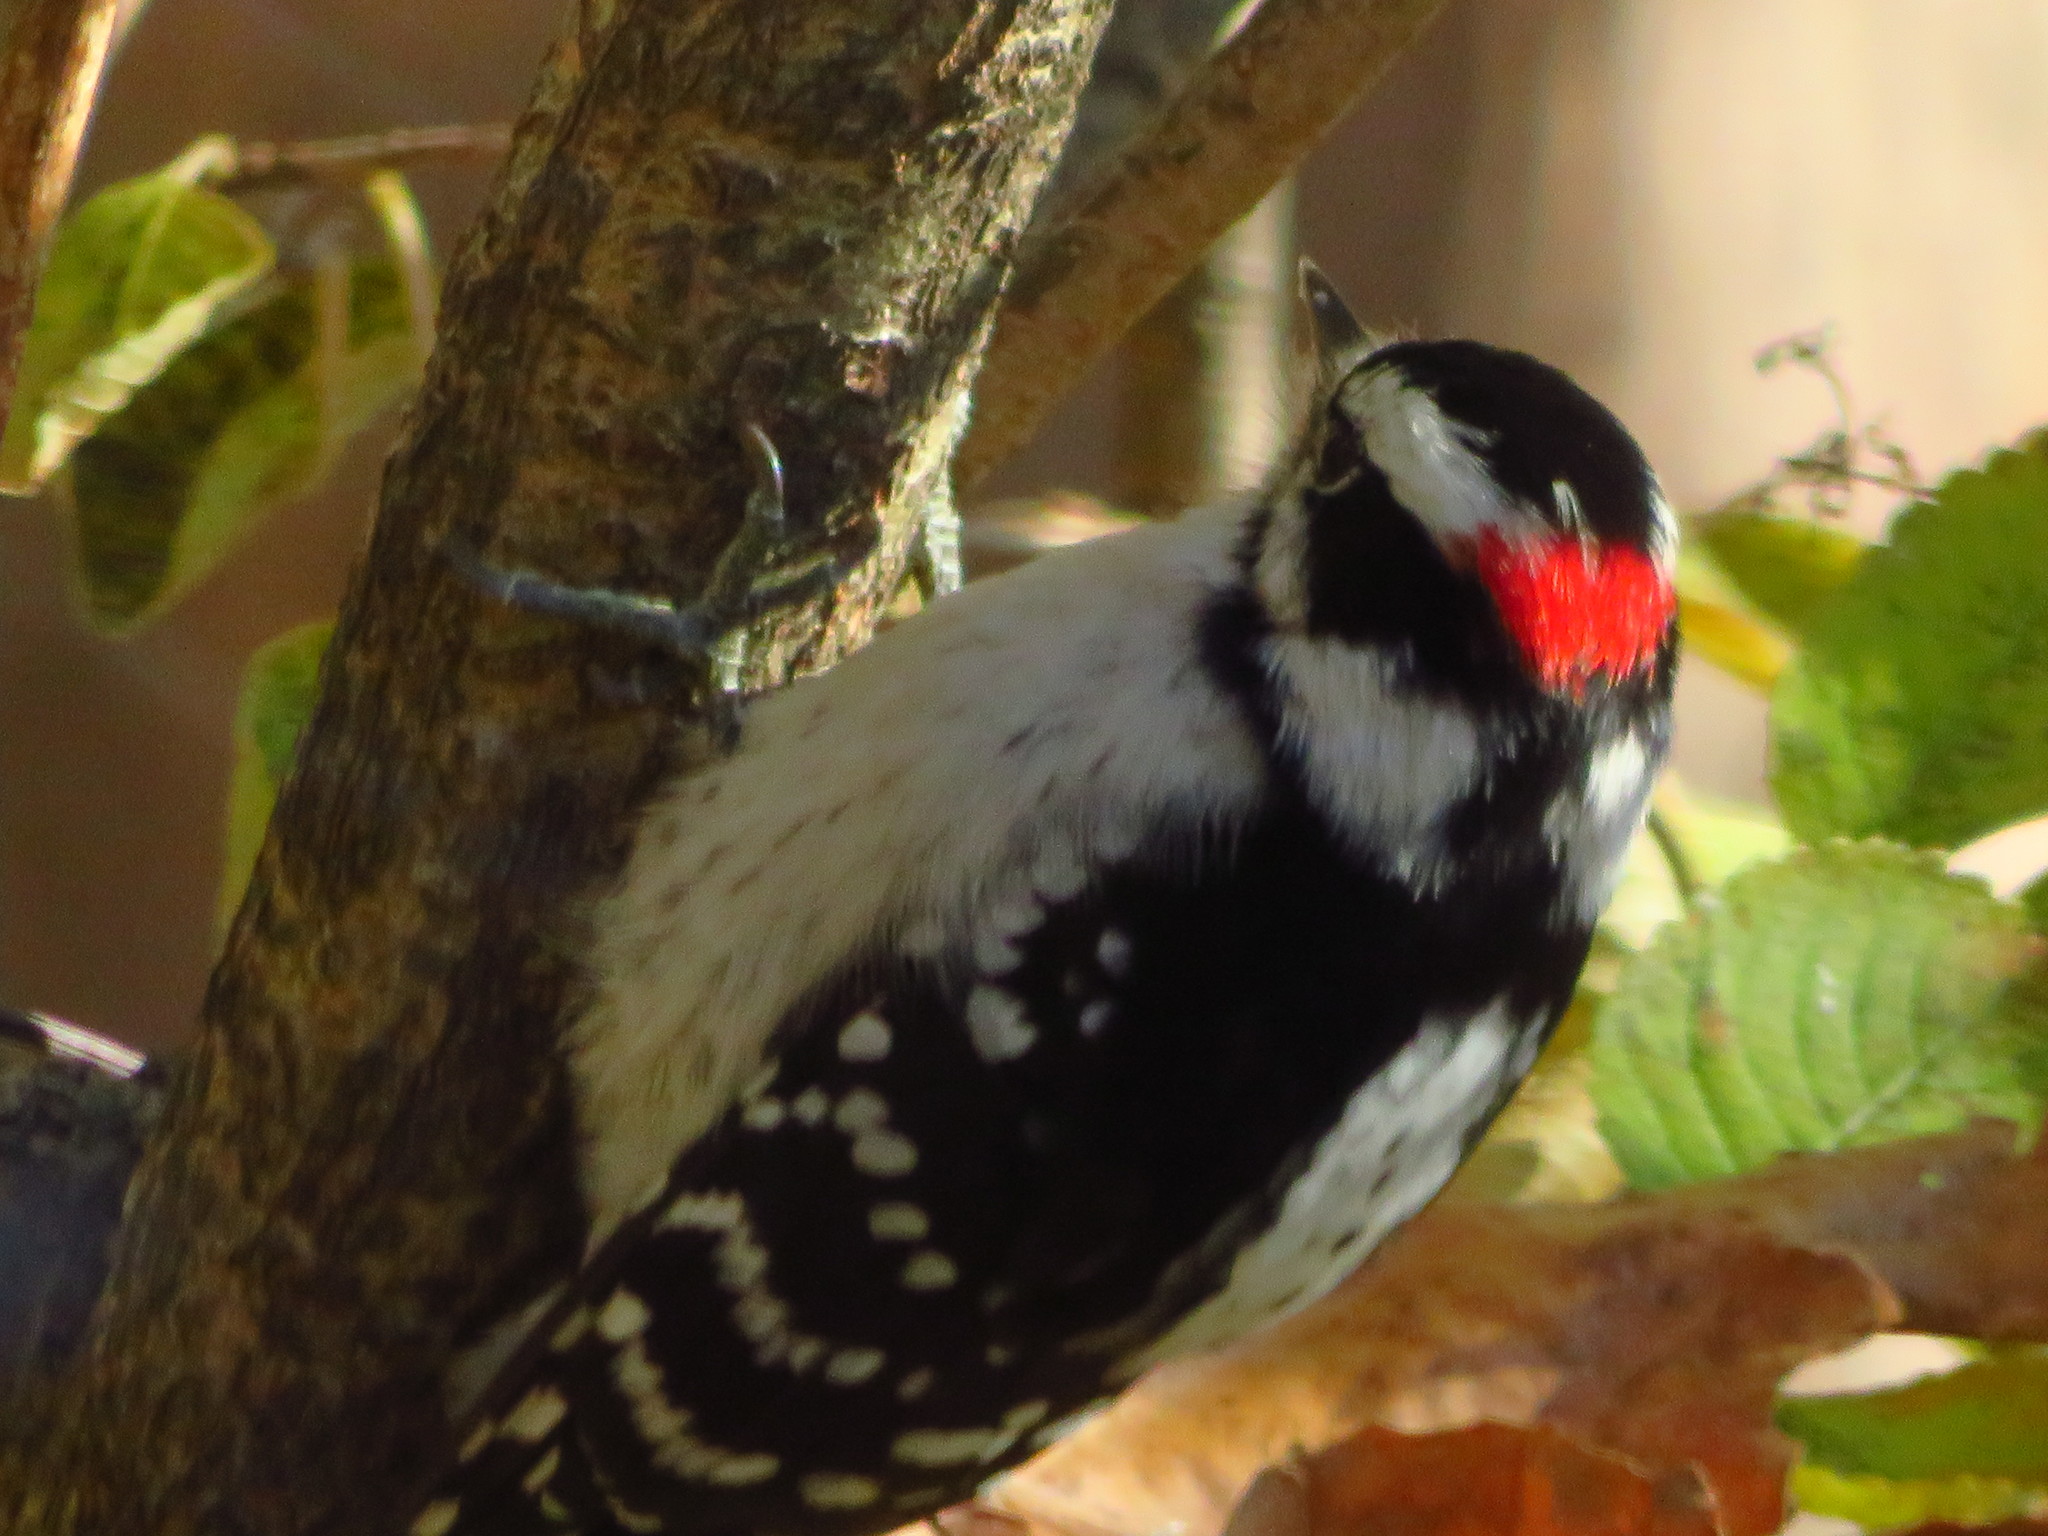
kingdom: Animalia
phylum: Chordata
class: Aves
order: Piciformes
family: Picidae
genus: Dryobates
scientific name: Dryobates pubescens
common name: Downy woodpecker
